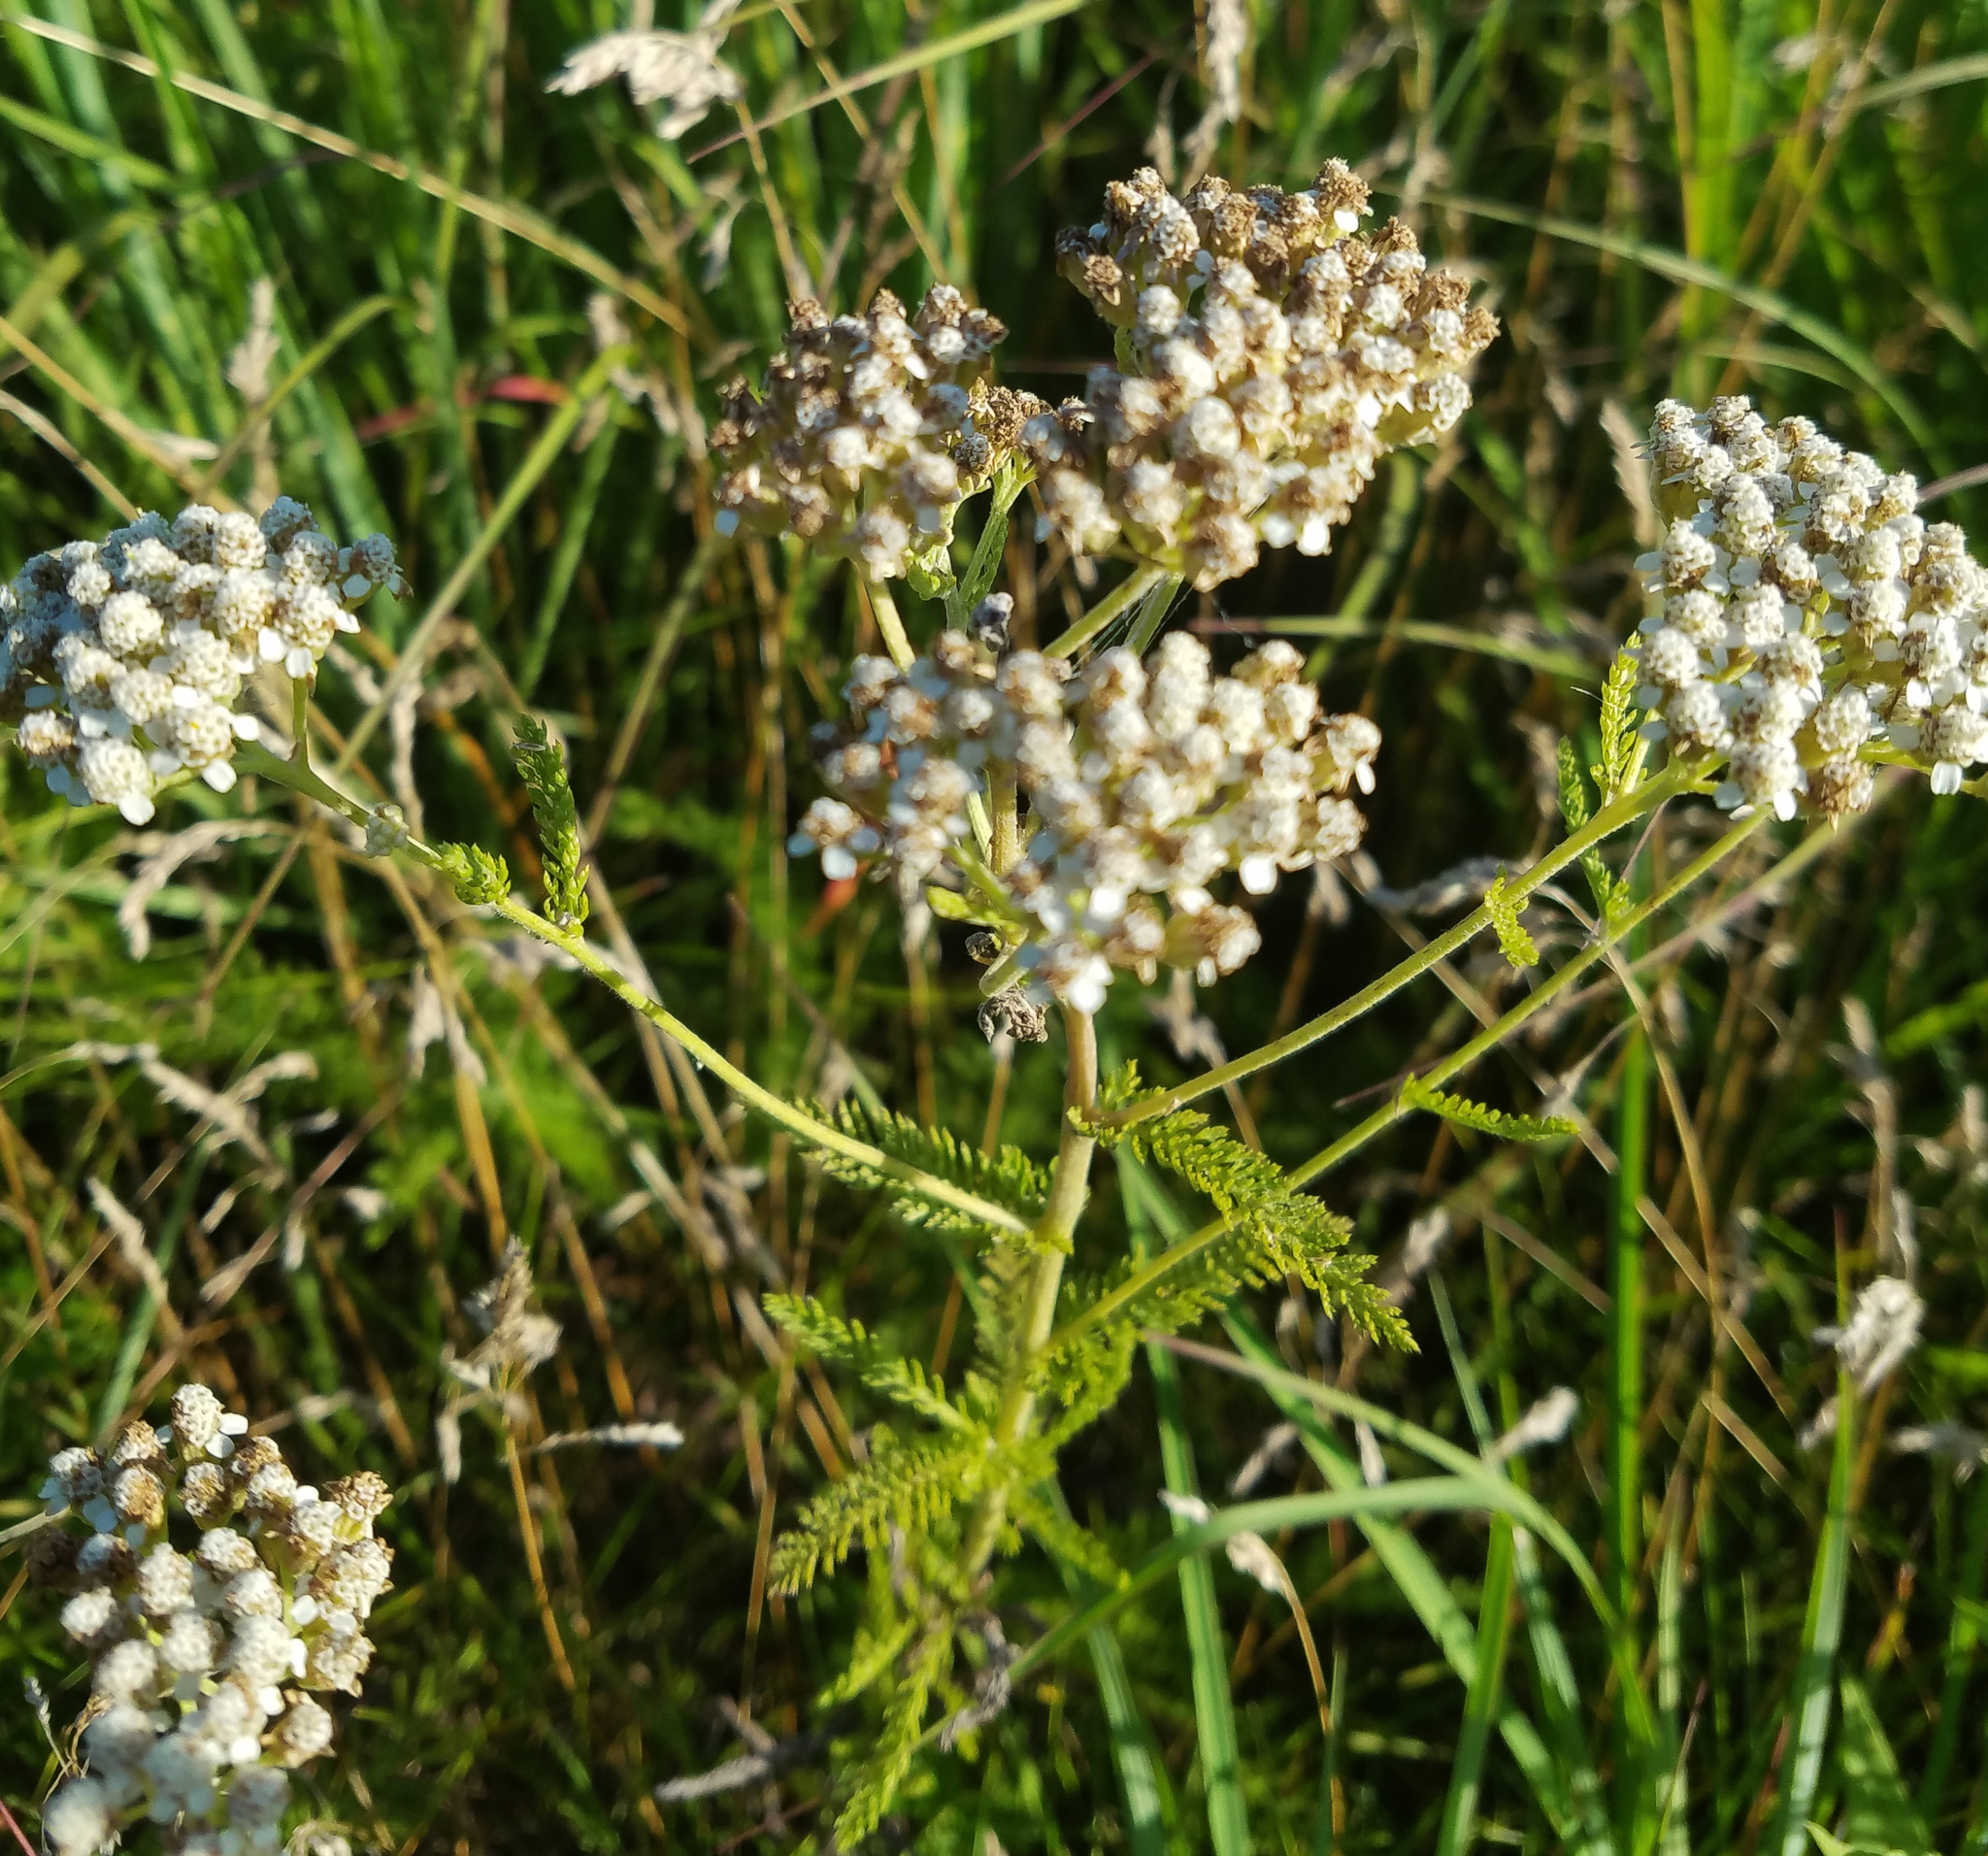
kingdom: Plantae
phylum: Tracheophyta
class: Magnoliopsida
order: Asterales
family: Asteraceae
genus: Achillea
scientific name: Achillea millefolium
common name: Yarrow
